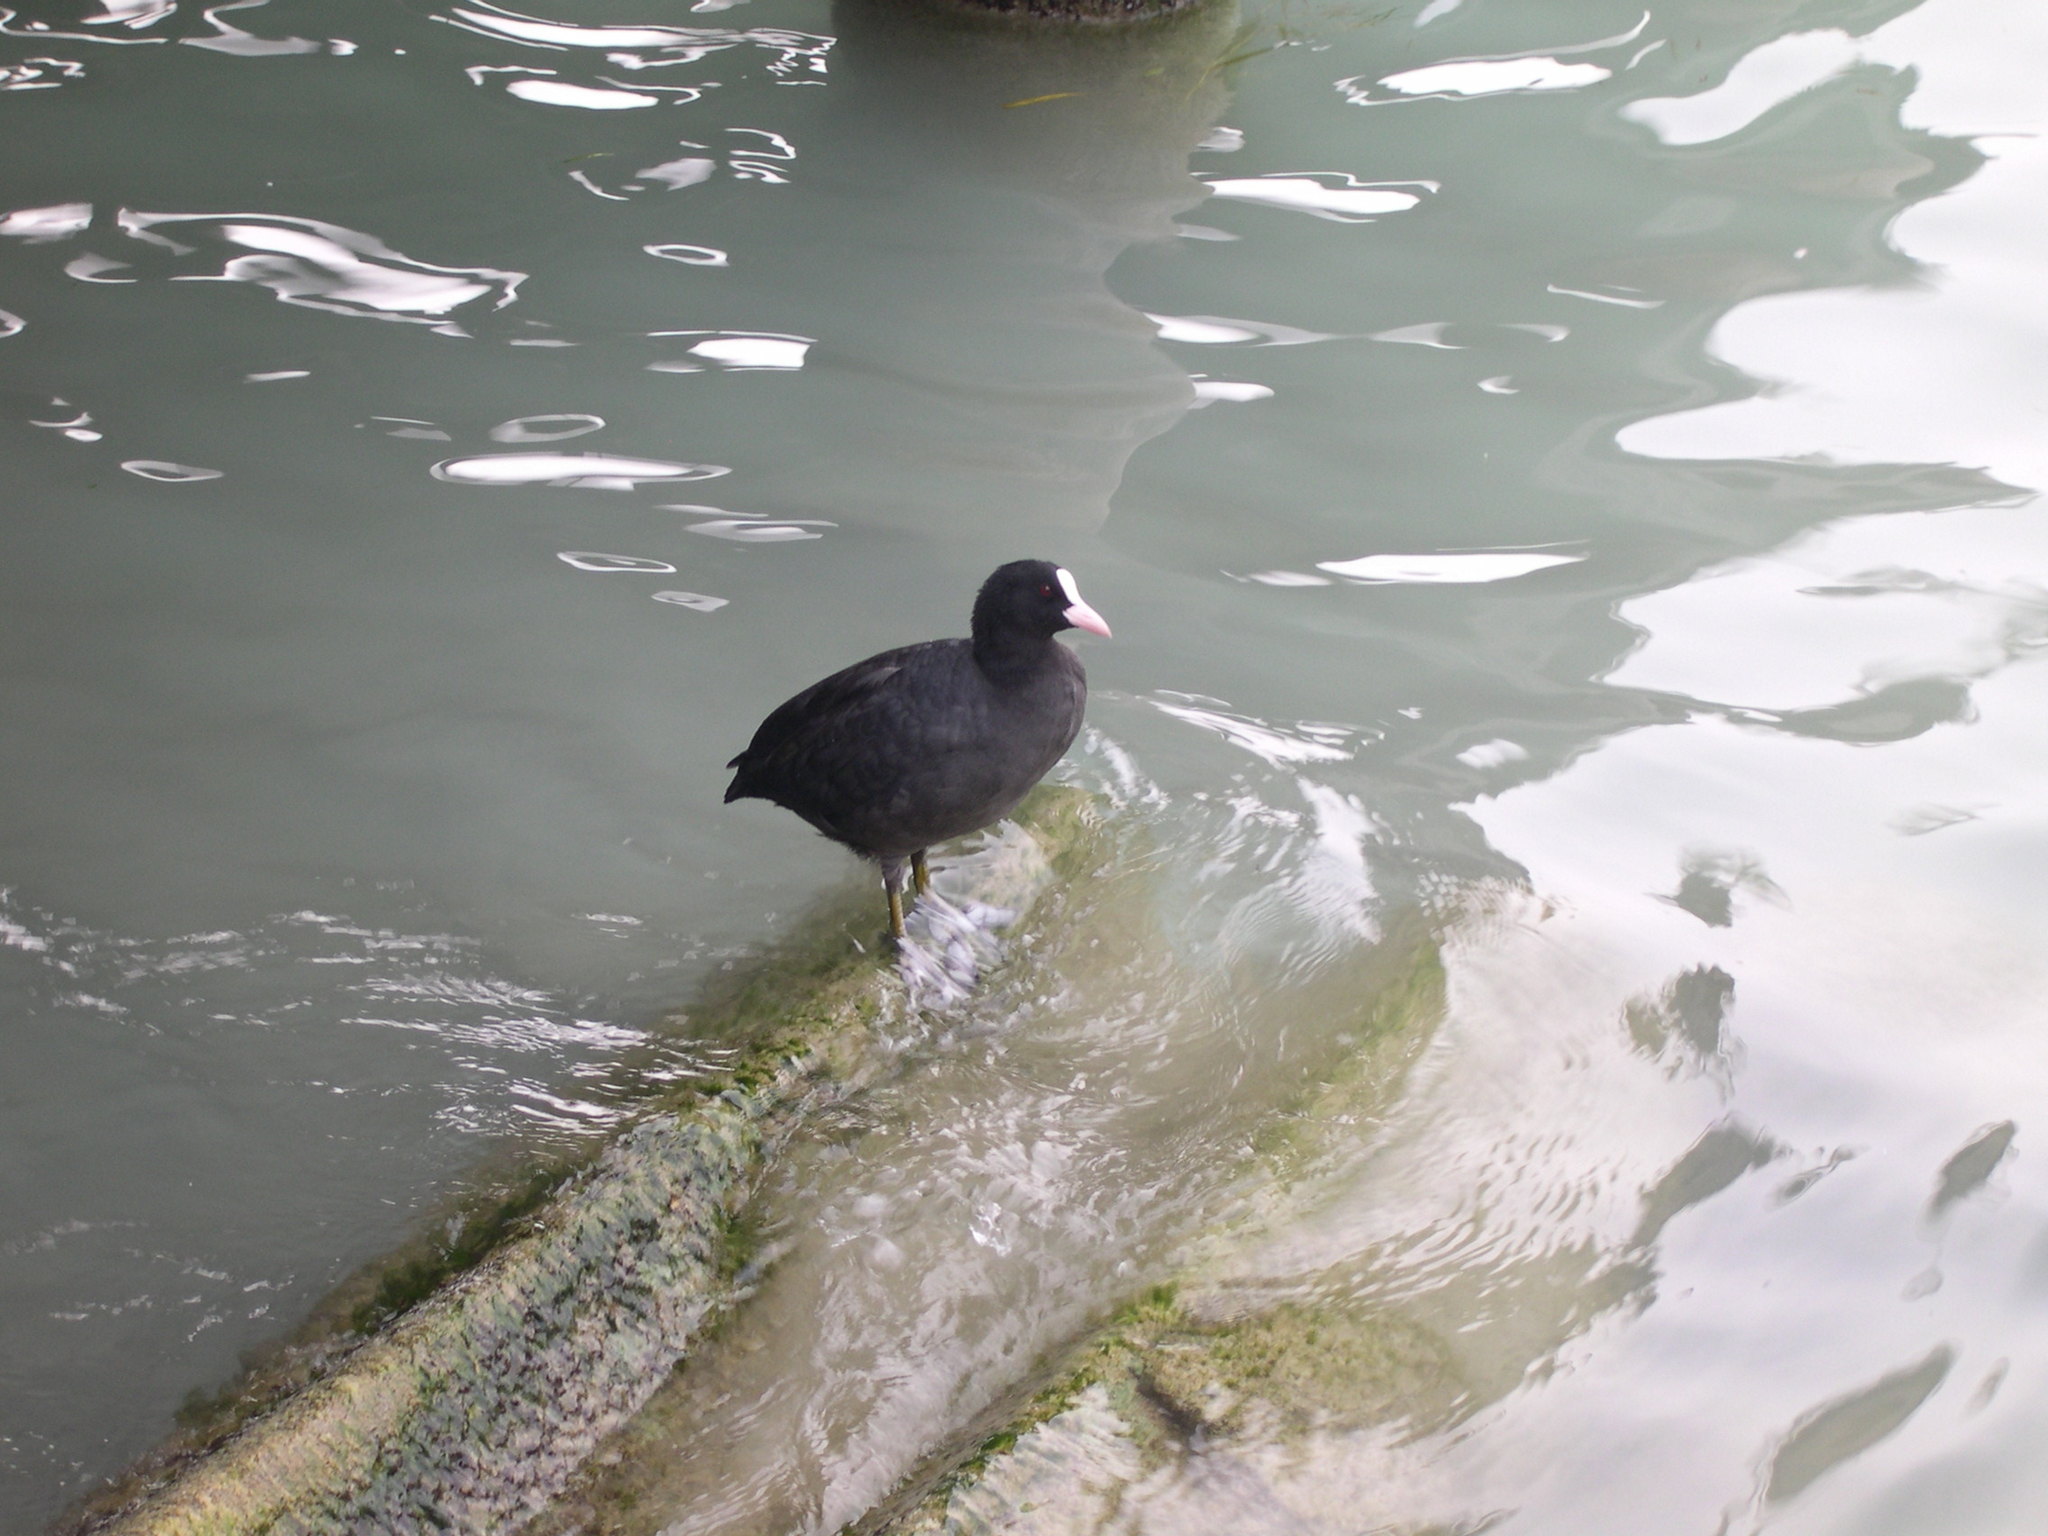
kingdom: Animalia
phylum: Chordata
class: Aves
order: Gruiformes
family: Rallidae
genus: Fulica
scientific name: Fulica atra
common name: Eurasian coot
